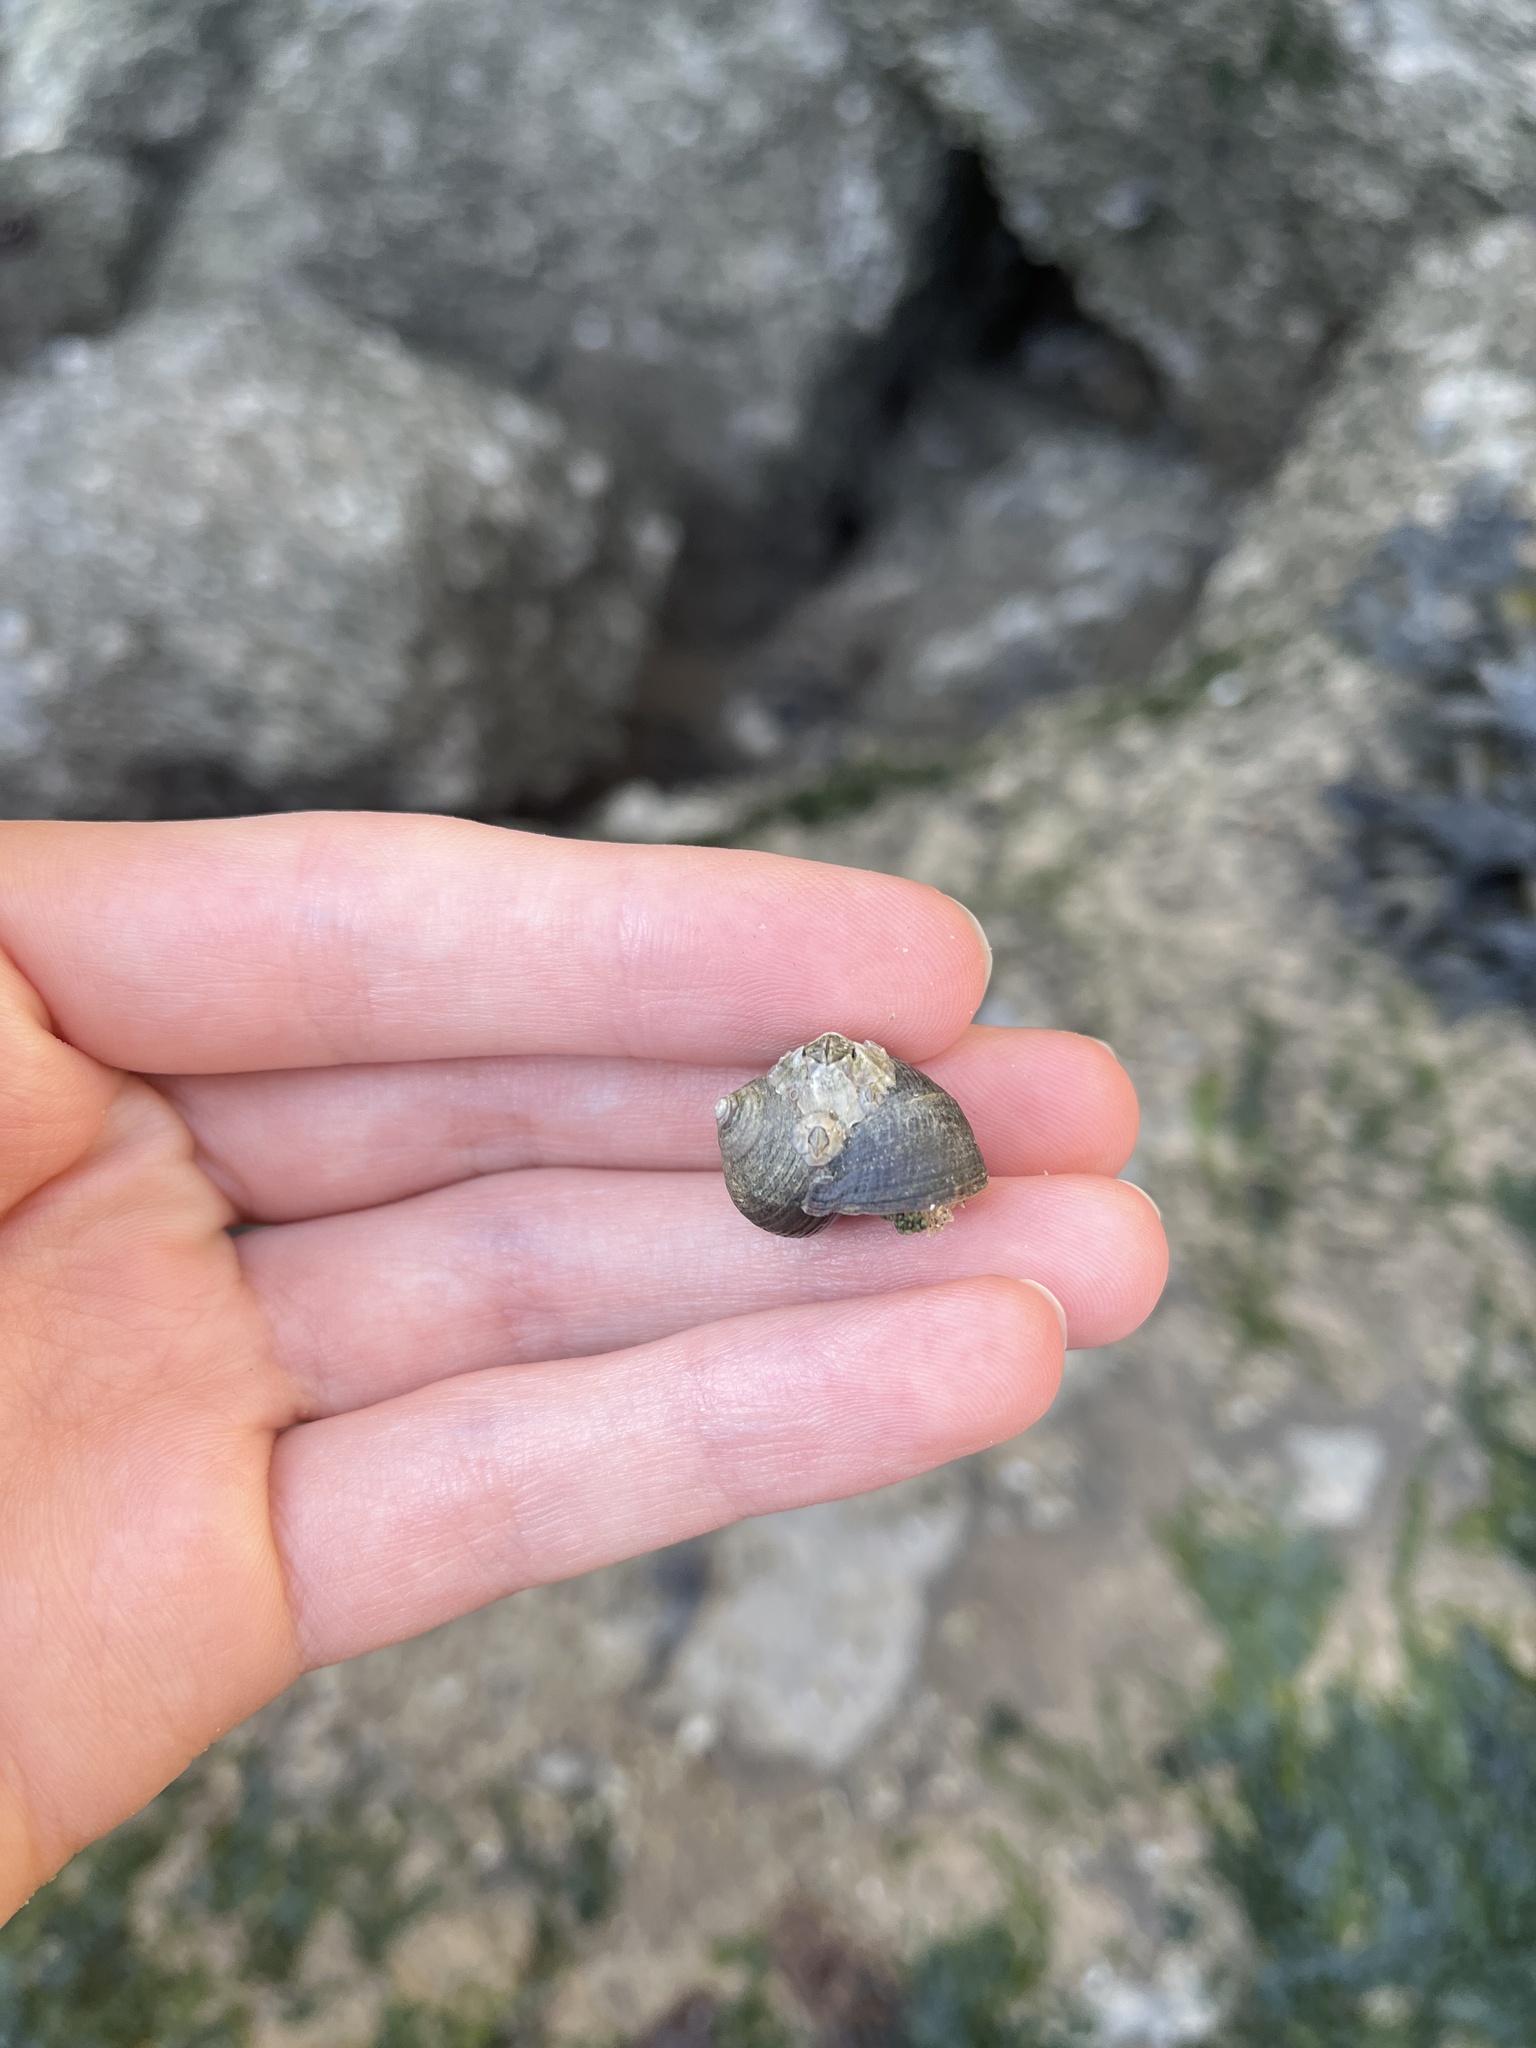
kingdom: Animalia
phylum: Mollusca
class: Gastropoda
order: Littorinimorpha
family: Littorinidae
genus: Littorina
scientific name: Littorina littorea
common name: Common periwinkle
